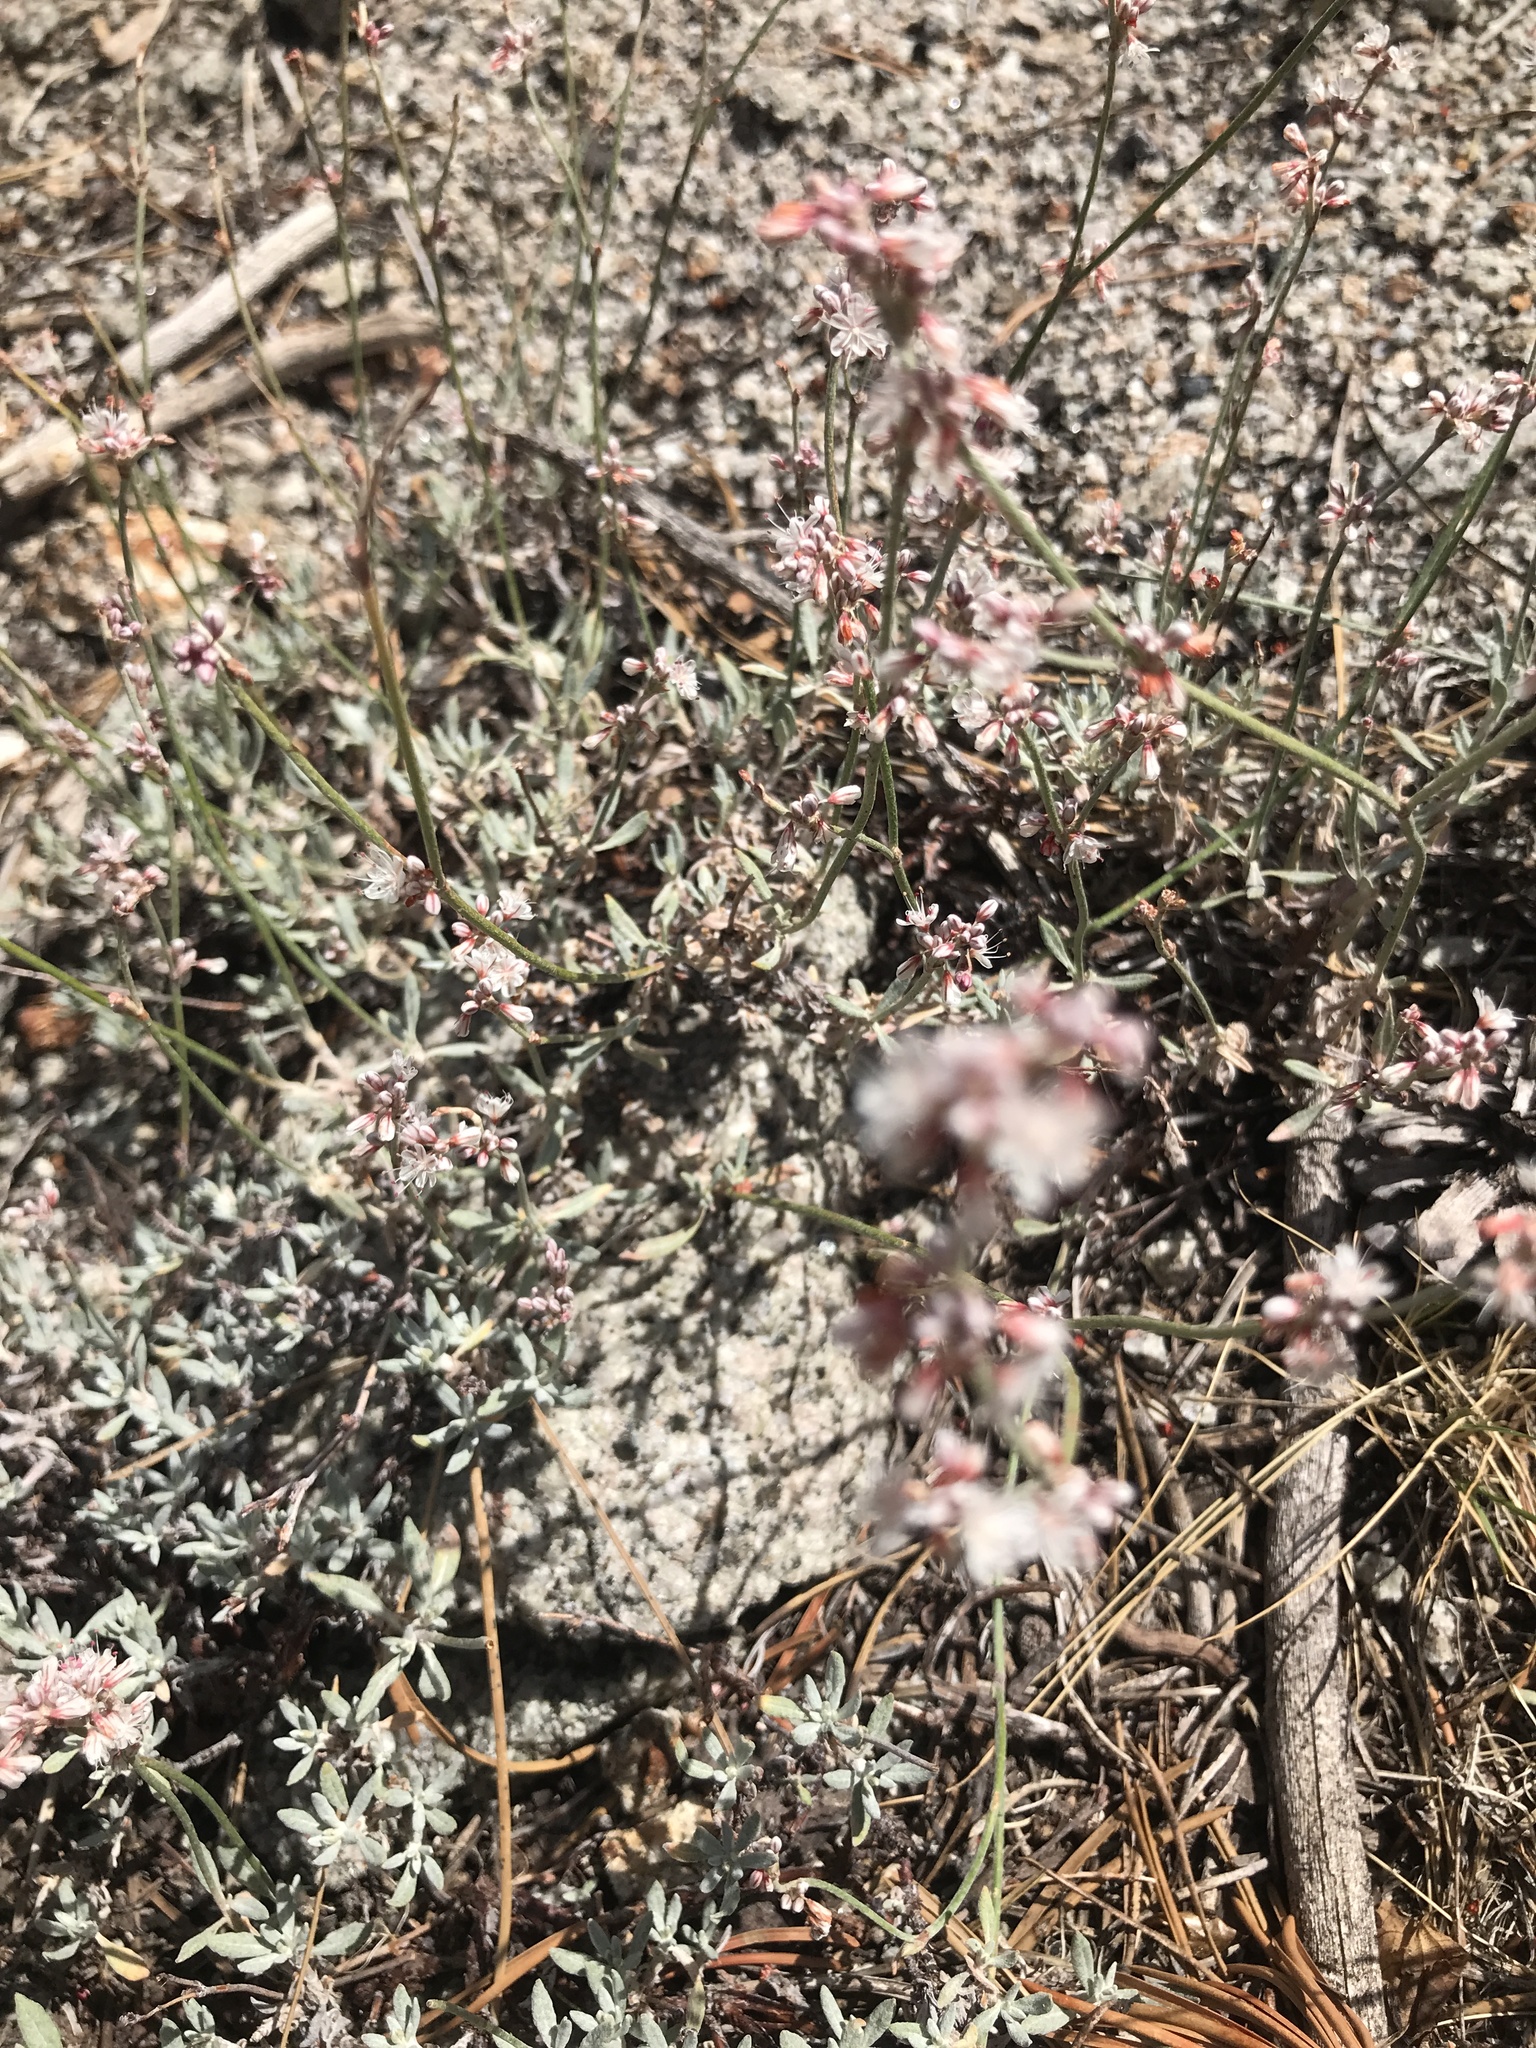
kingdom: Plantae
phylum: Tracheophyta
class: Magnoliopsida
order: Caryophyllales
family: Polygonaceae
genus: Eriogonum
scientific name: Eriogonum wrightii
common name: Bastard-sage
